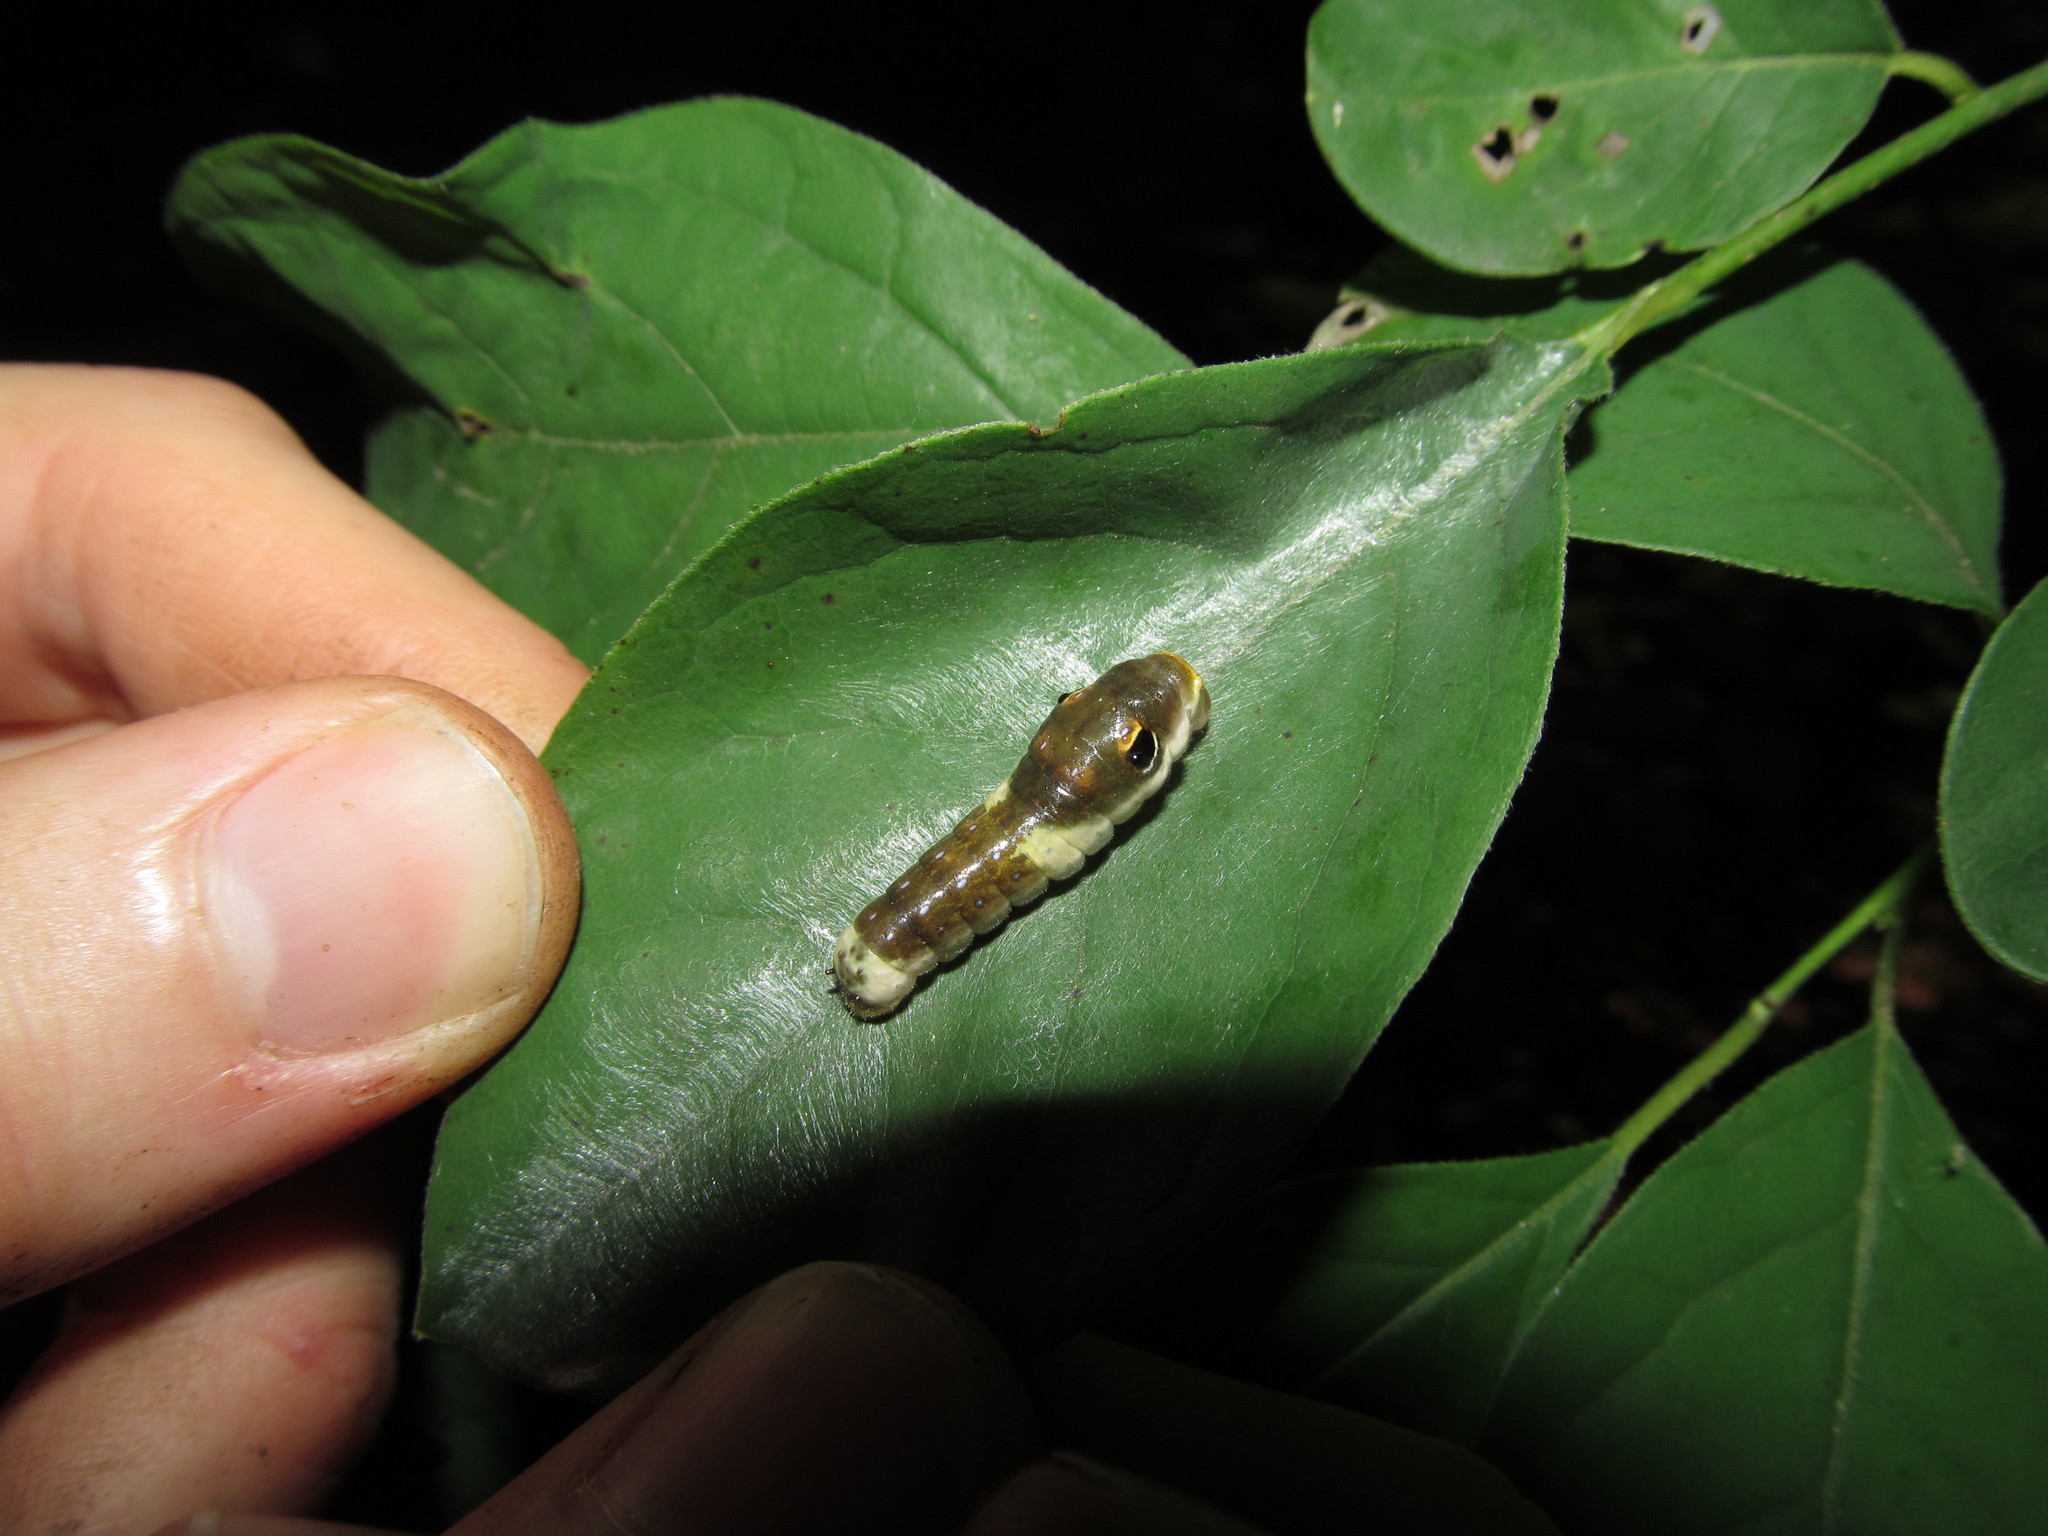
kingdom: Animalia
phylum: Arthropoda
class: Insecta
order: Lepidoptera
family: Papilionidae
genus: Papilio
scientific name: Papilio troilus
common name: Spicebush swallowtail
